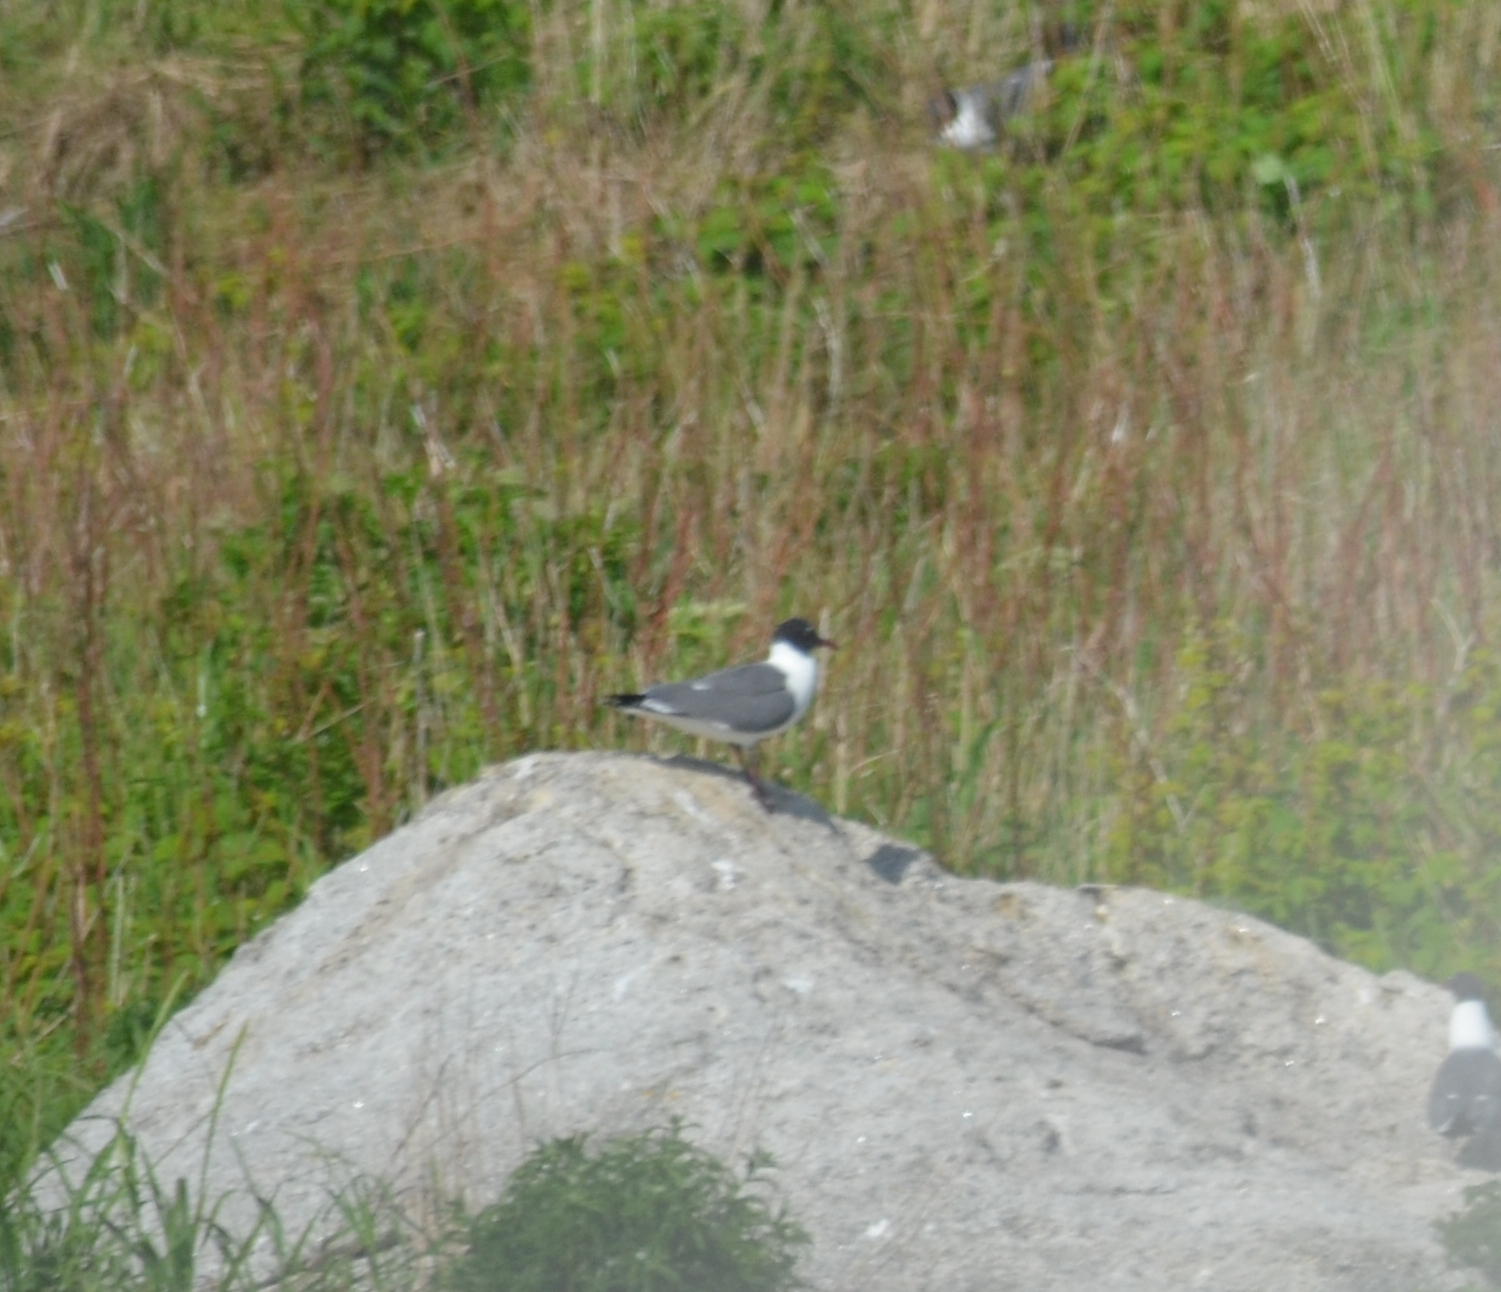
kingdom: Animalia
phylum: Chordata
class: Aves
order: Charadriiformes
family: Laridae
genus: Leucophaeus
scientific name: Leucophaeus atricilla
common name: Laughing gull
